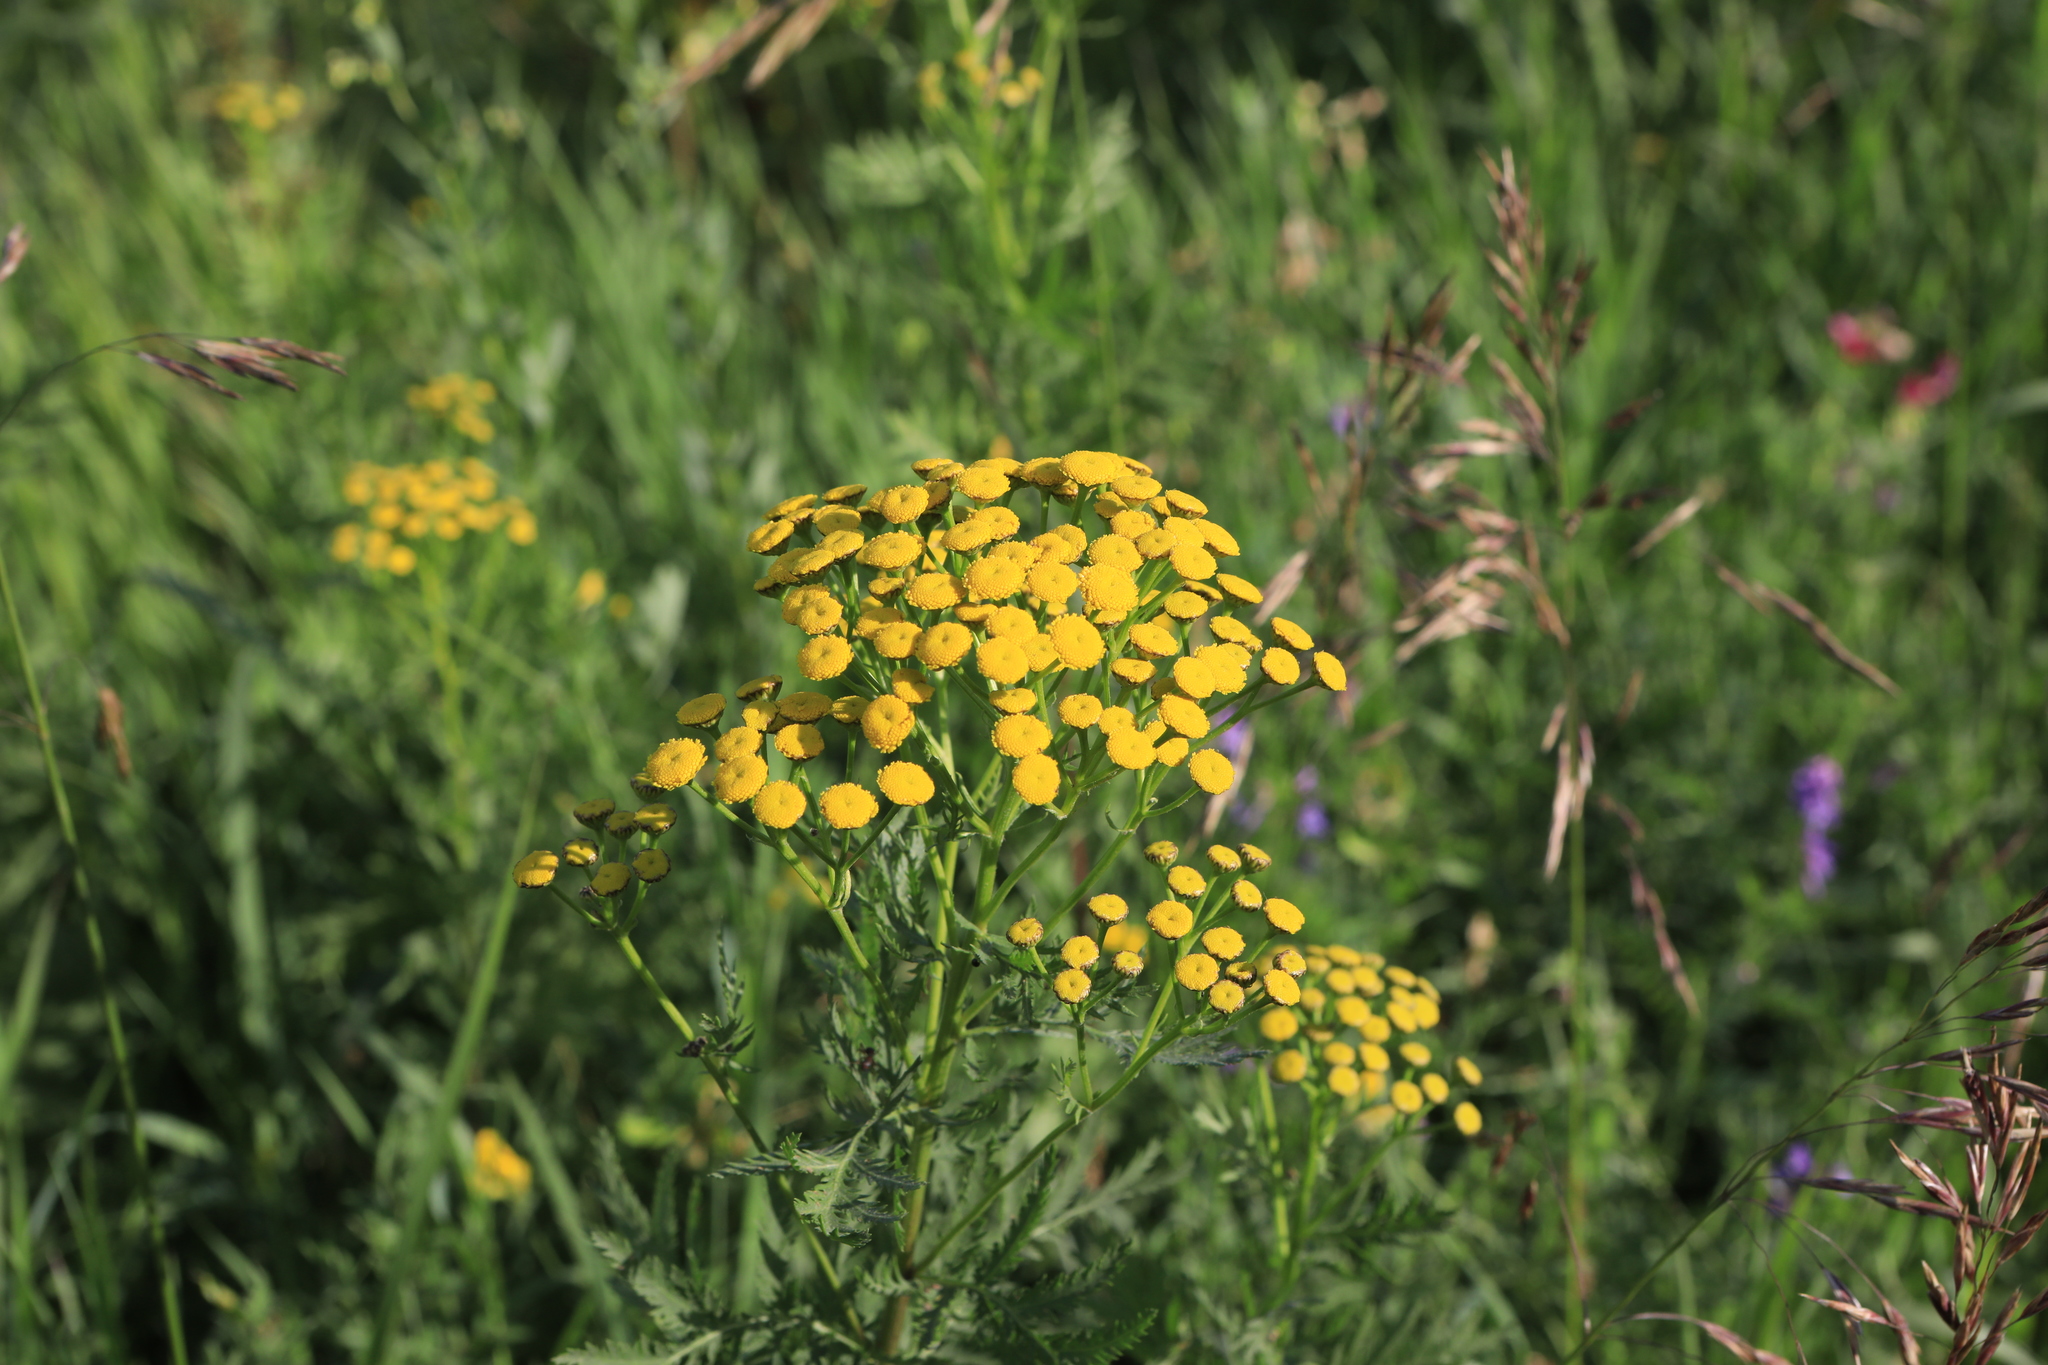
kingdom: Plantae
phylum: Tracheophyta
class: Magnoliopsida
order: Asterales
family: Asteraceae
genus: Tanacetum
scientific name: Tanacetum vulgare
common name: Common tansy
